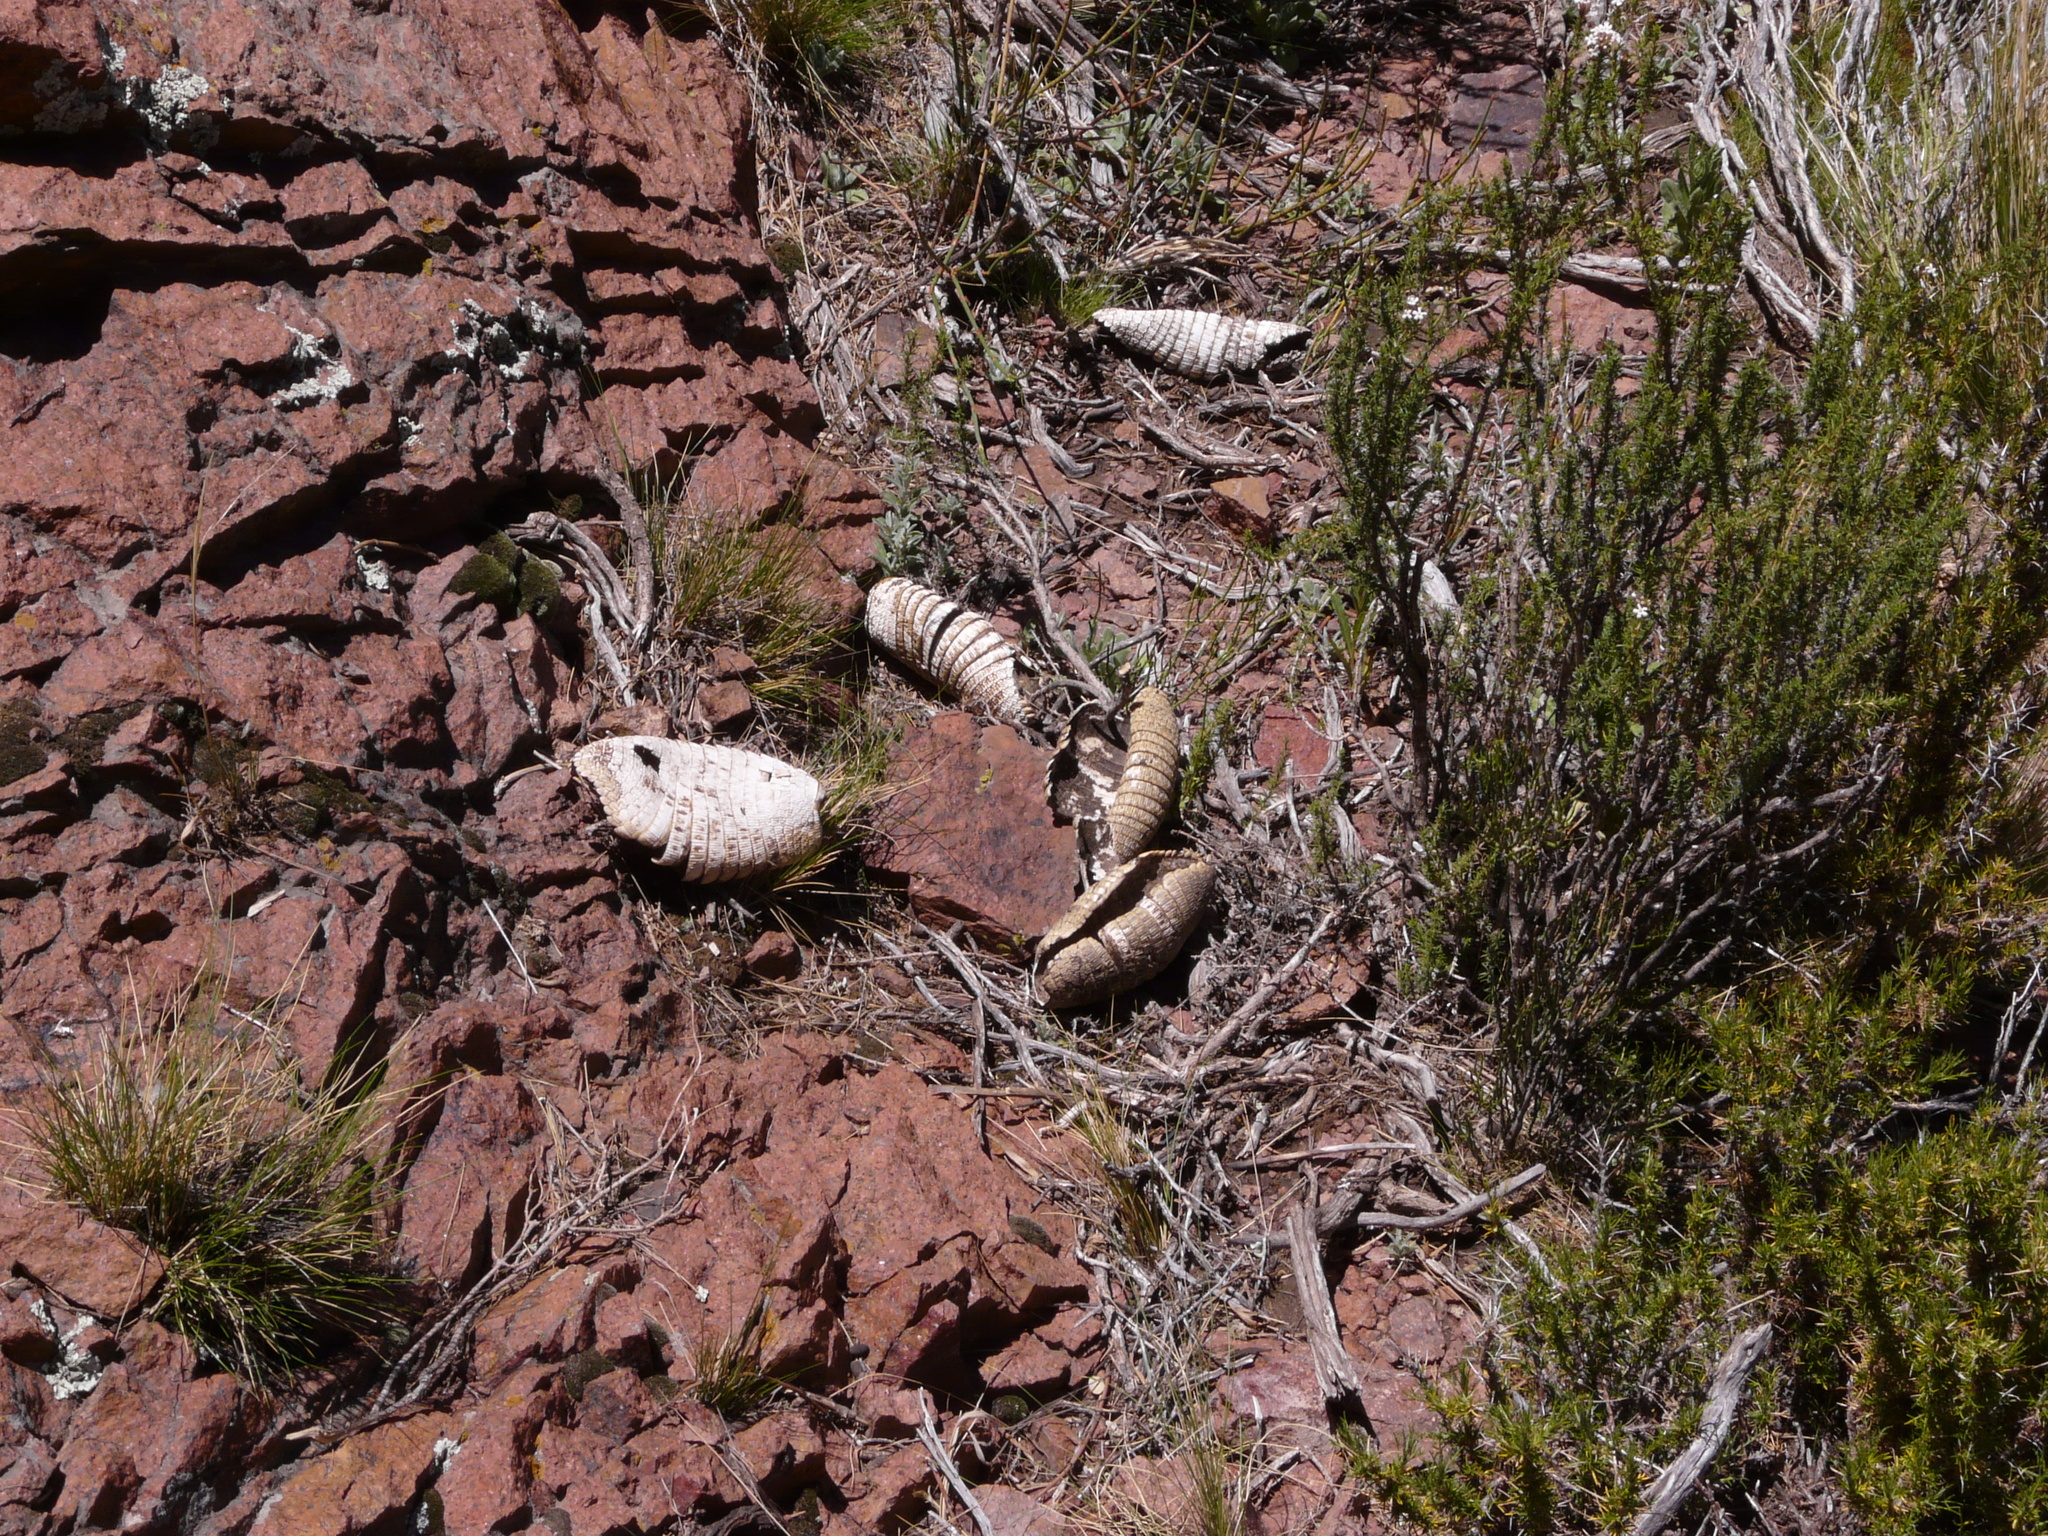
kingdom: Animalia
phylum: Chordata
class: Mammalia
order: Cingulata
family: Dasypodidae
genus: Zaedyus
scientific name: Zaedyus pichiy
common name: Pichi
